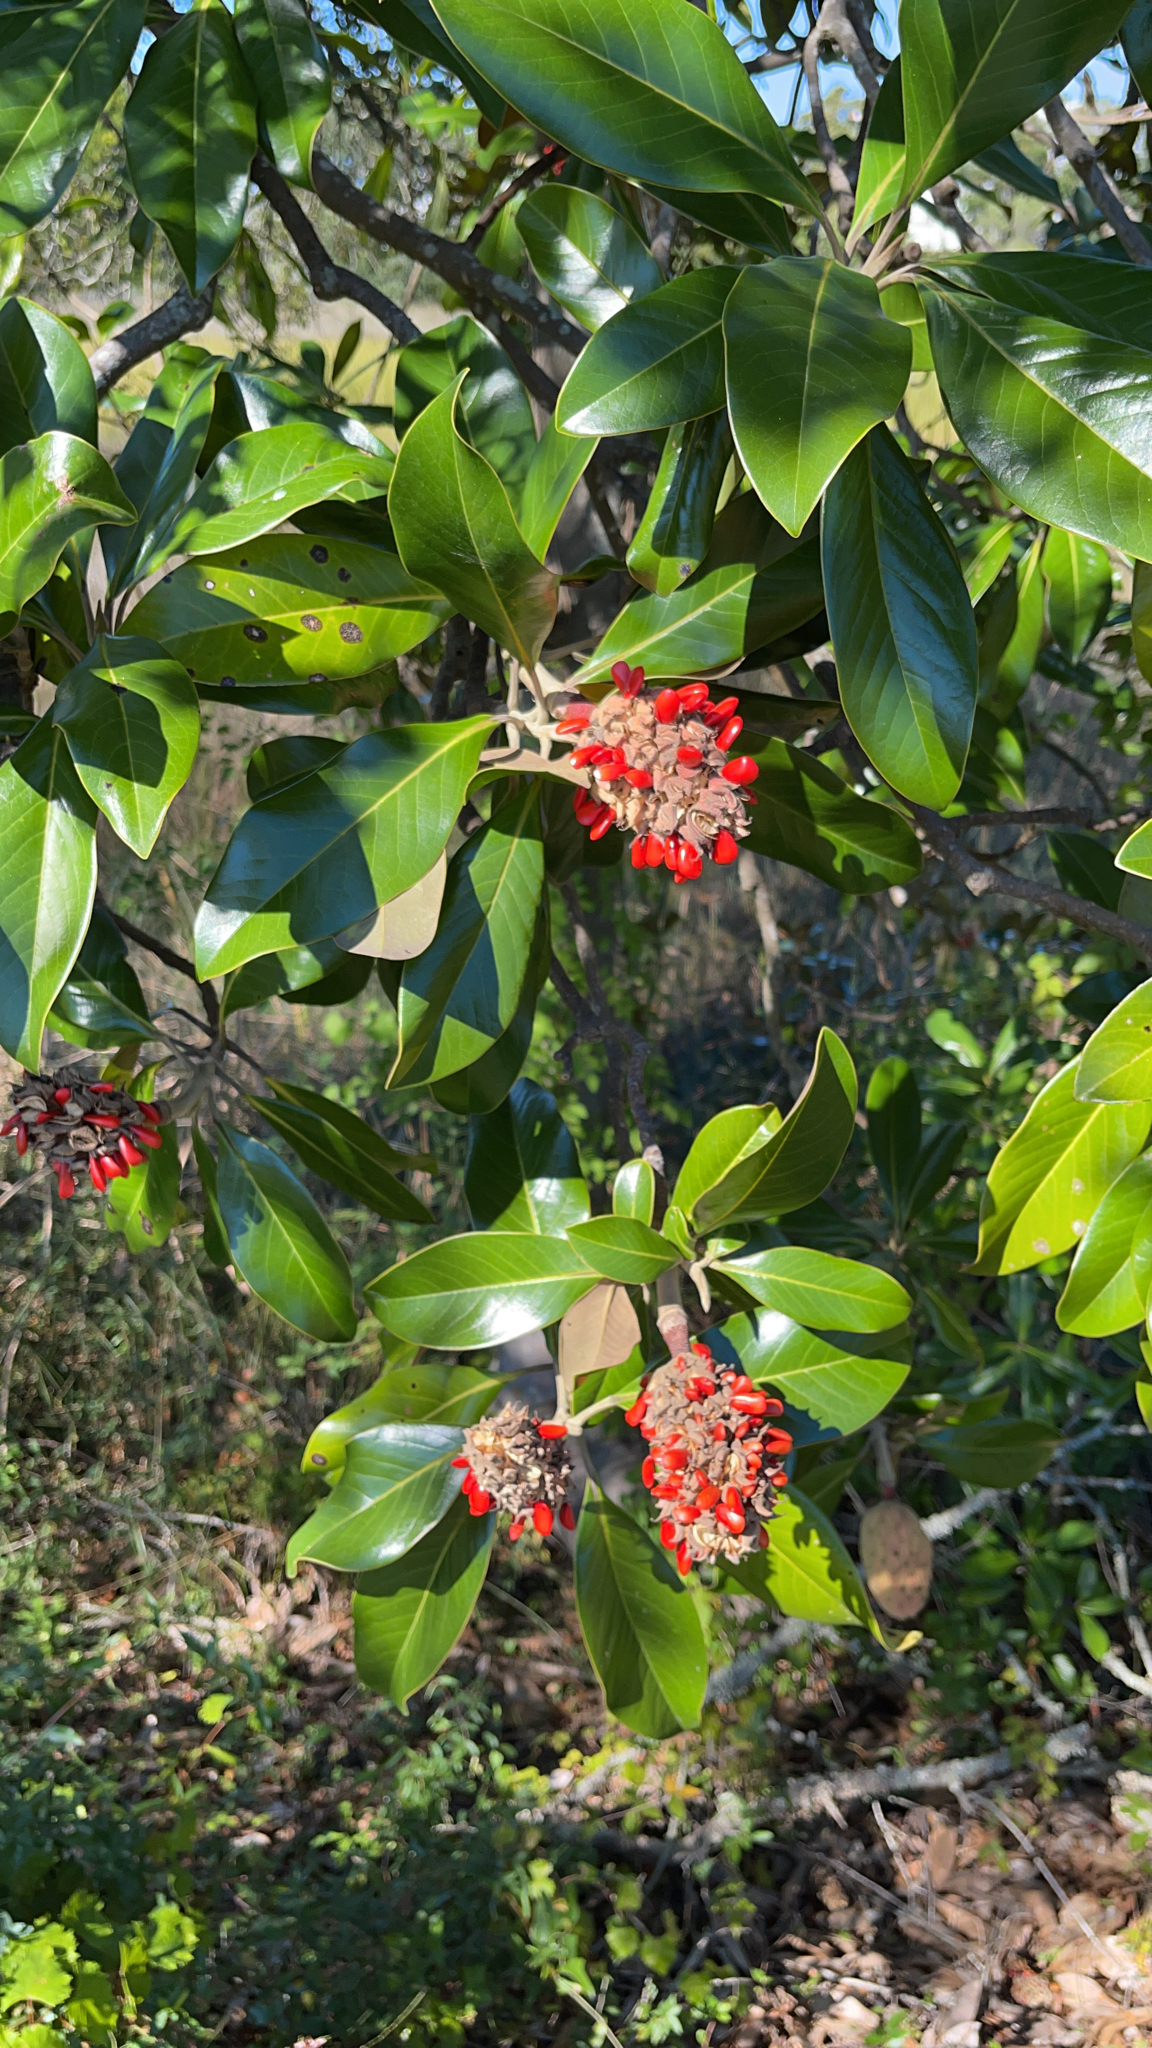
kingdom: Plantae
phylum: Tracheophyta
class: Magnoliopsida
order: Magnoliales
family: Magnoliaceae
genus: Magnolia
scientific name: Magnolia grandiflora
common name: Southern magnolia
